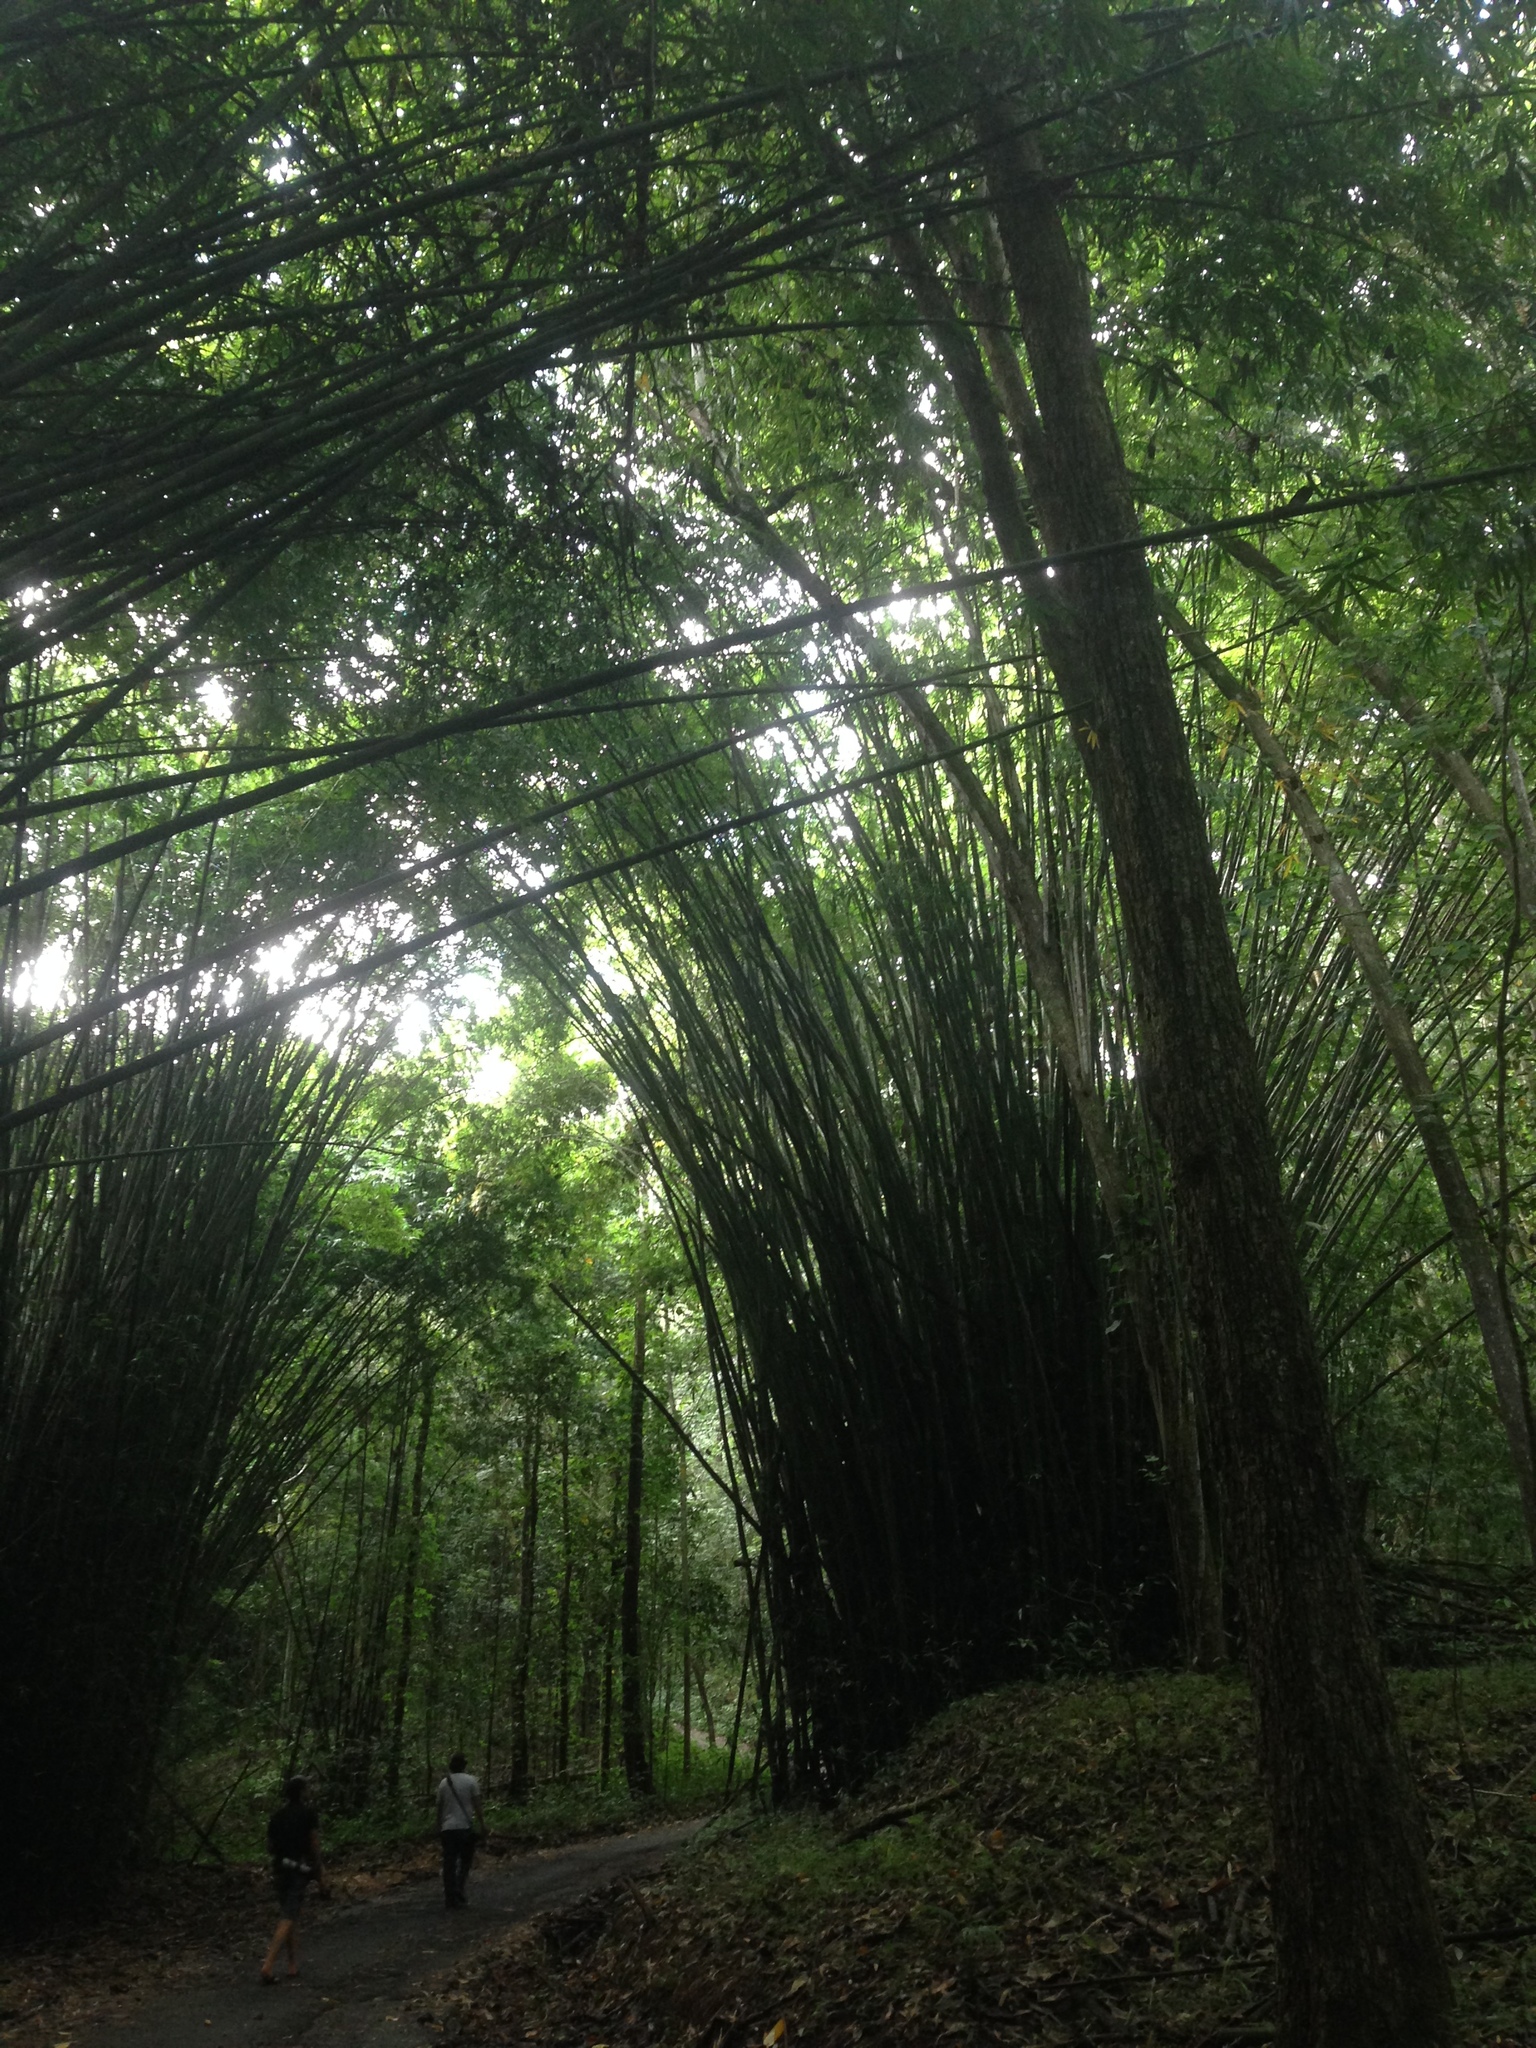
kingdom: Plantae
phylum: Tracheophyta
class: Liliopsida
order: Poales
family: Poaceae
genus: Bambusa
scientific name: Bambusa vulgaris
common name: Common bamboo
